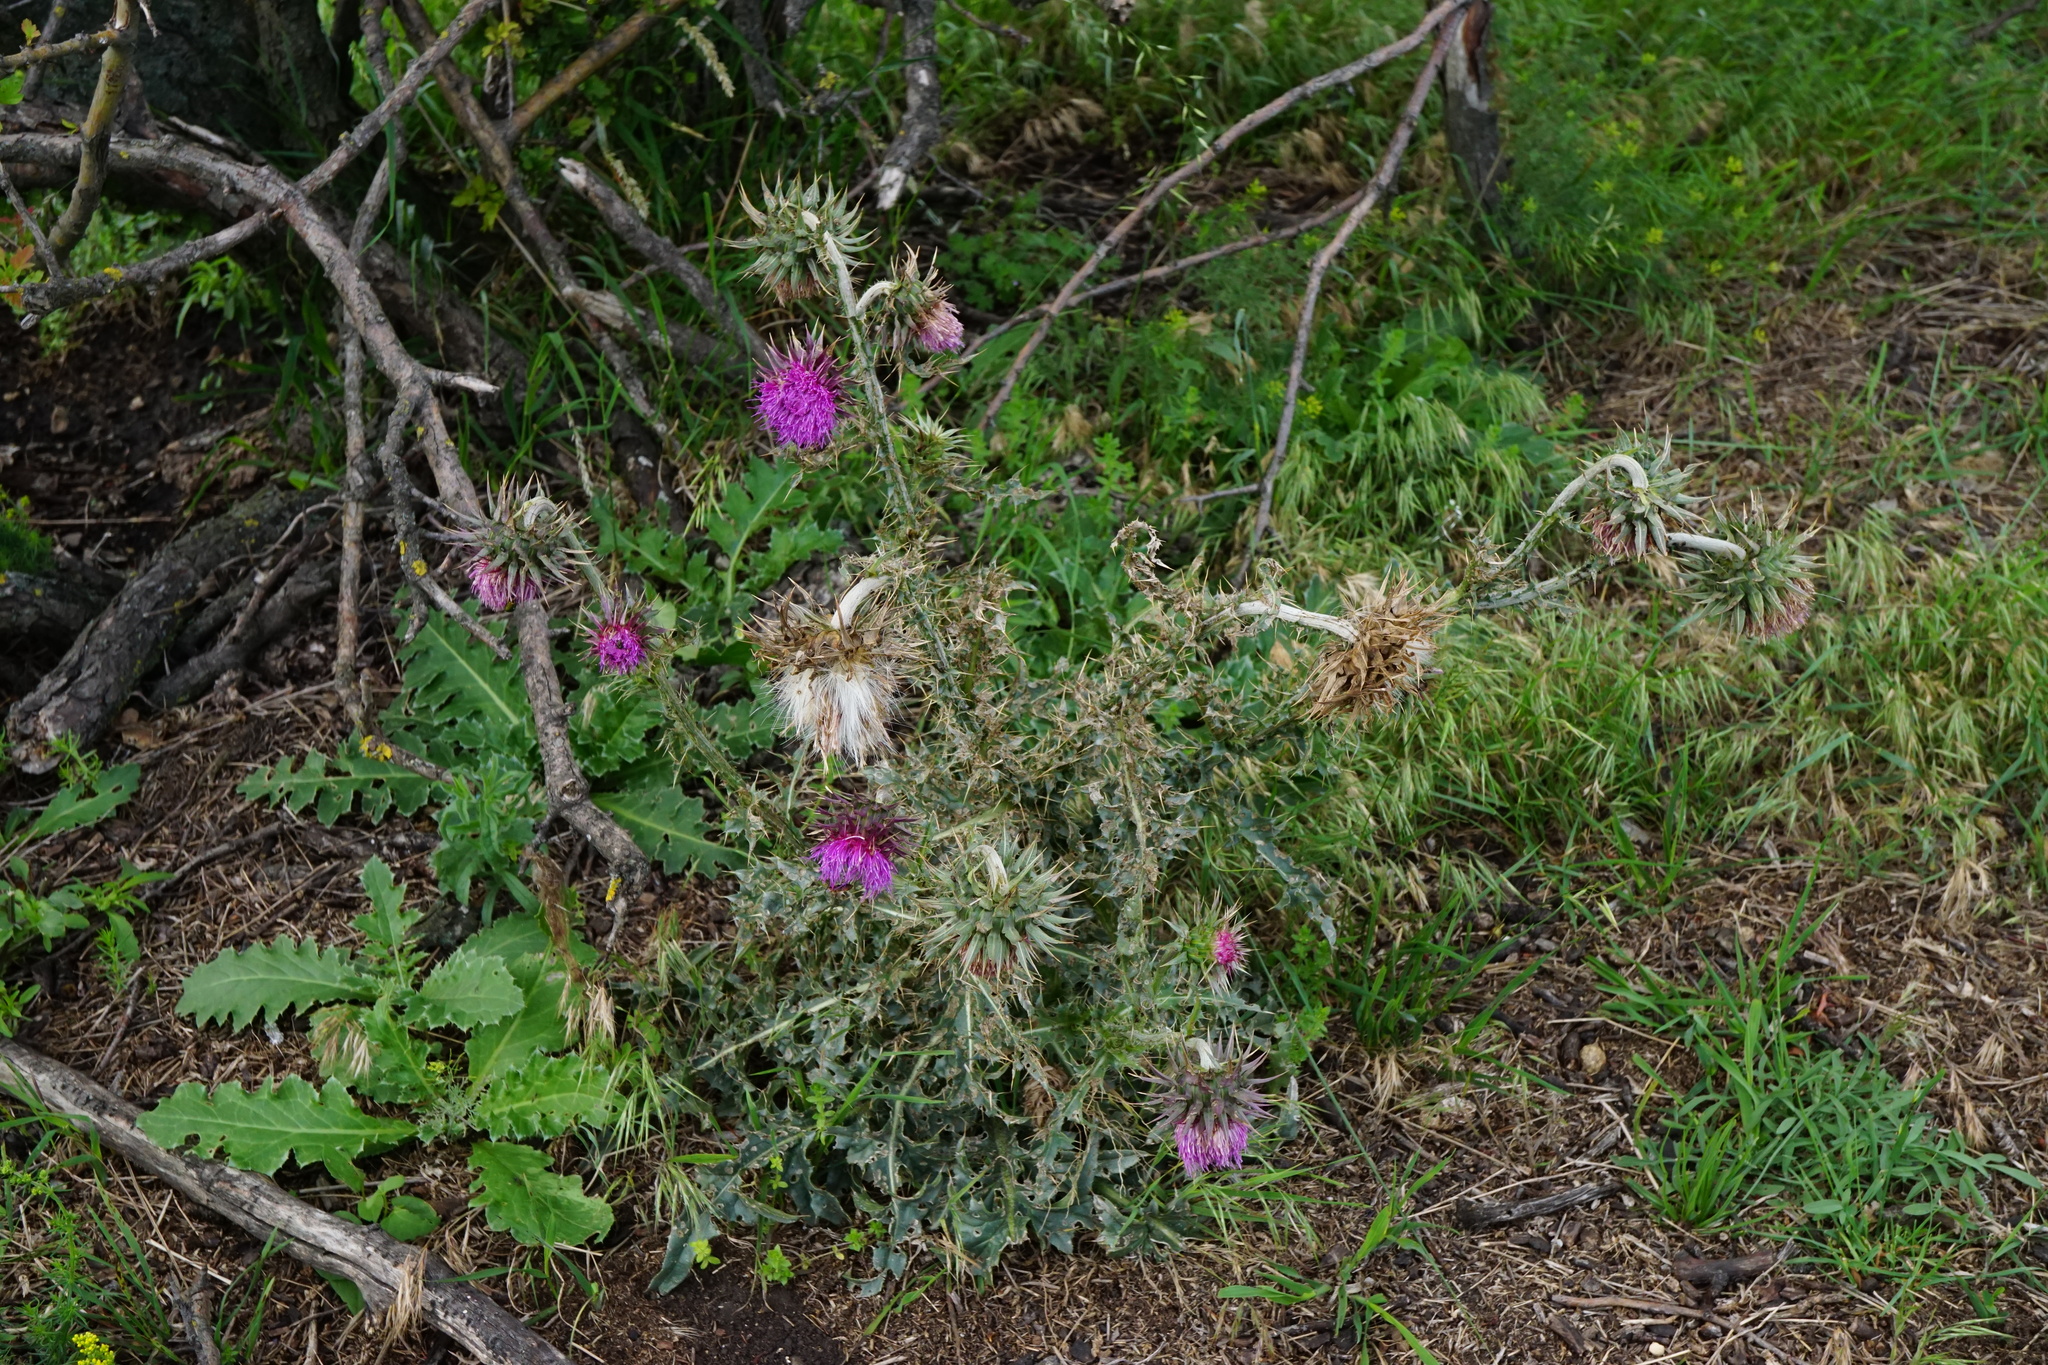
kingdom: Plantae
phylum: Tracheophyta
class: Magnoliopsida
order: Asterales
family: Asteraceae
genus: Carduus
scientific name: Carduus nutans
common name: Musk thistle
